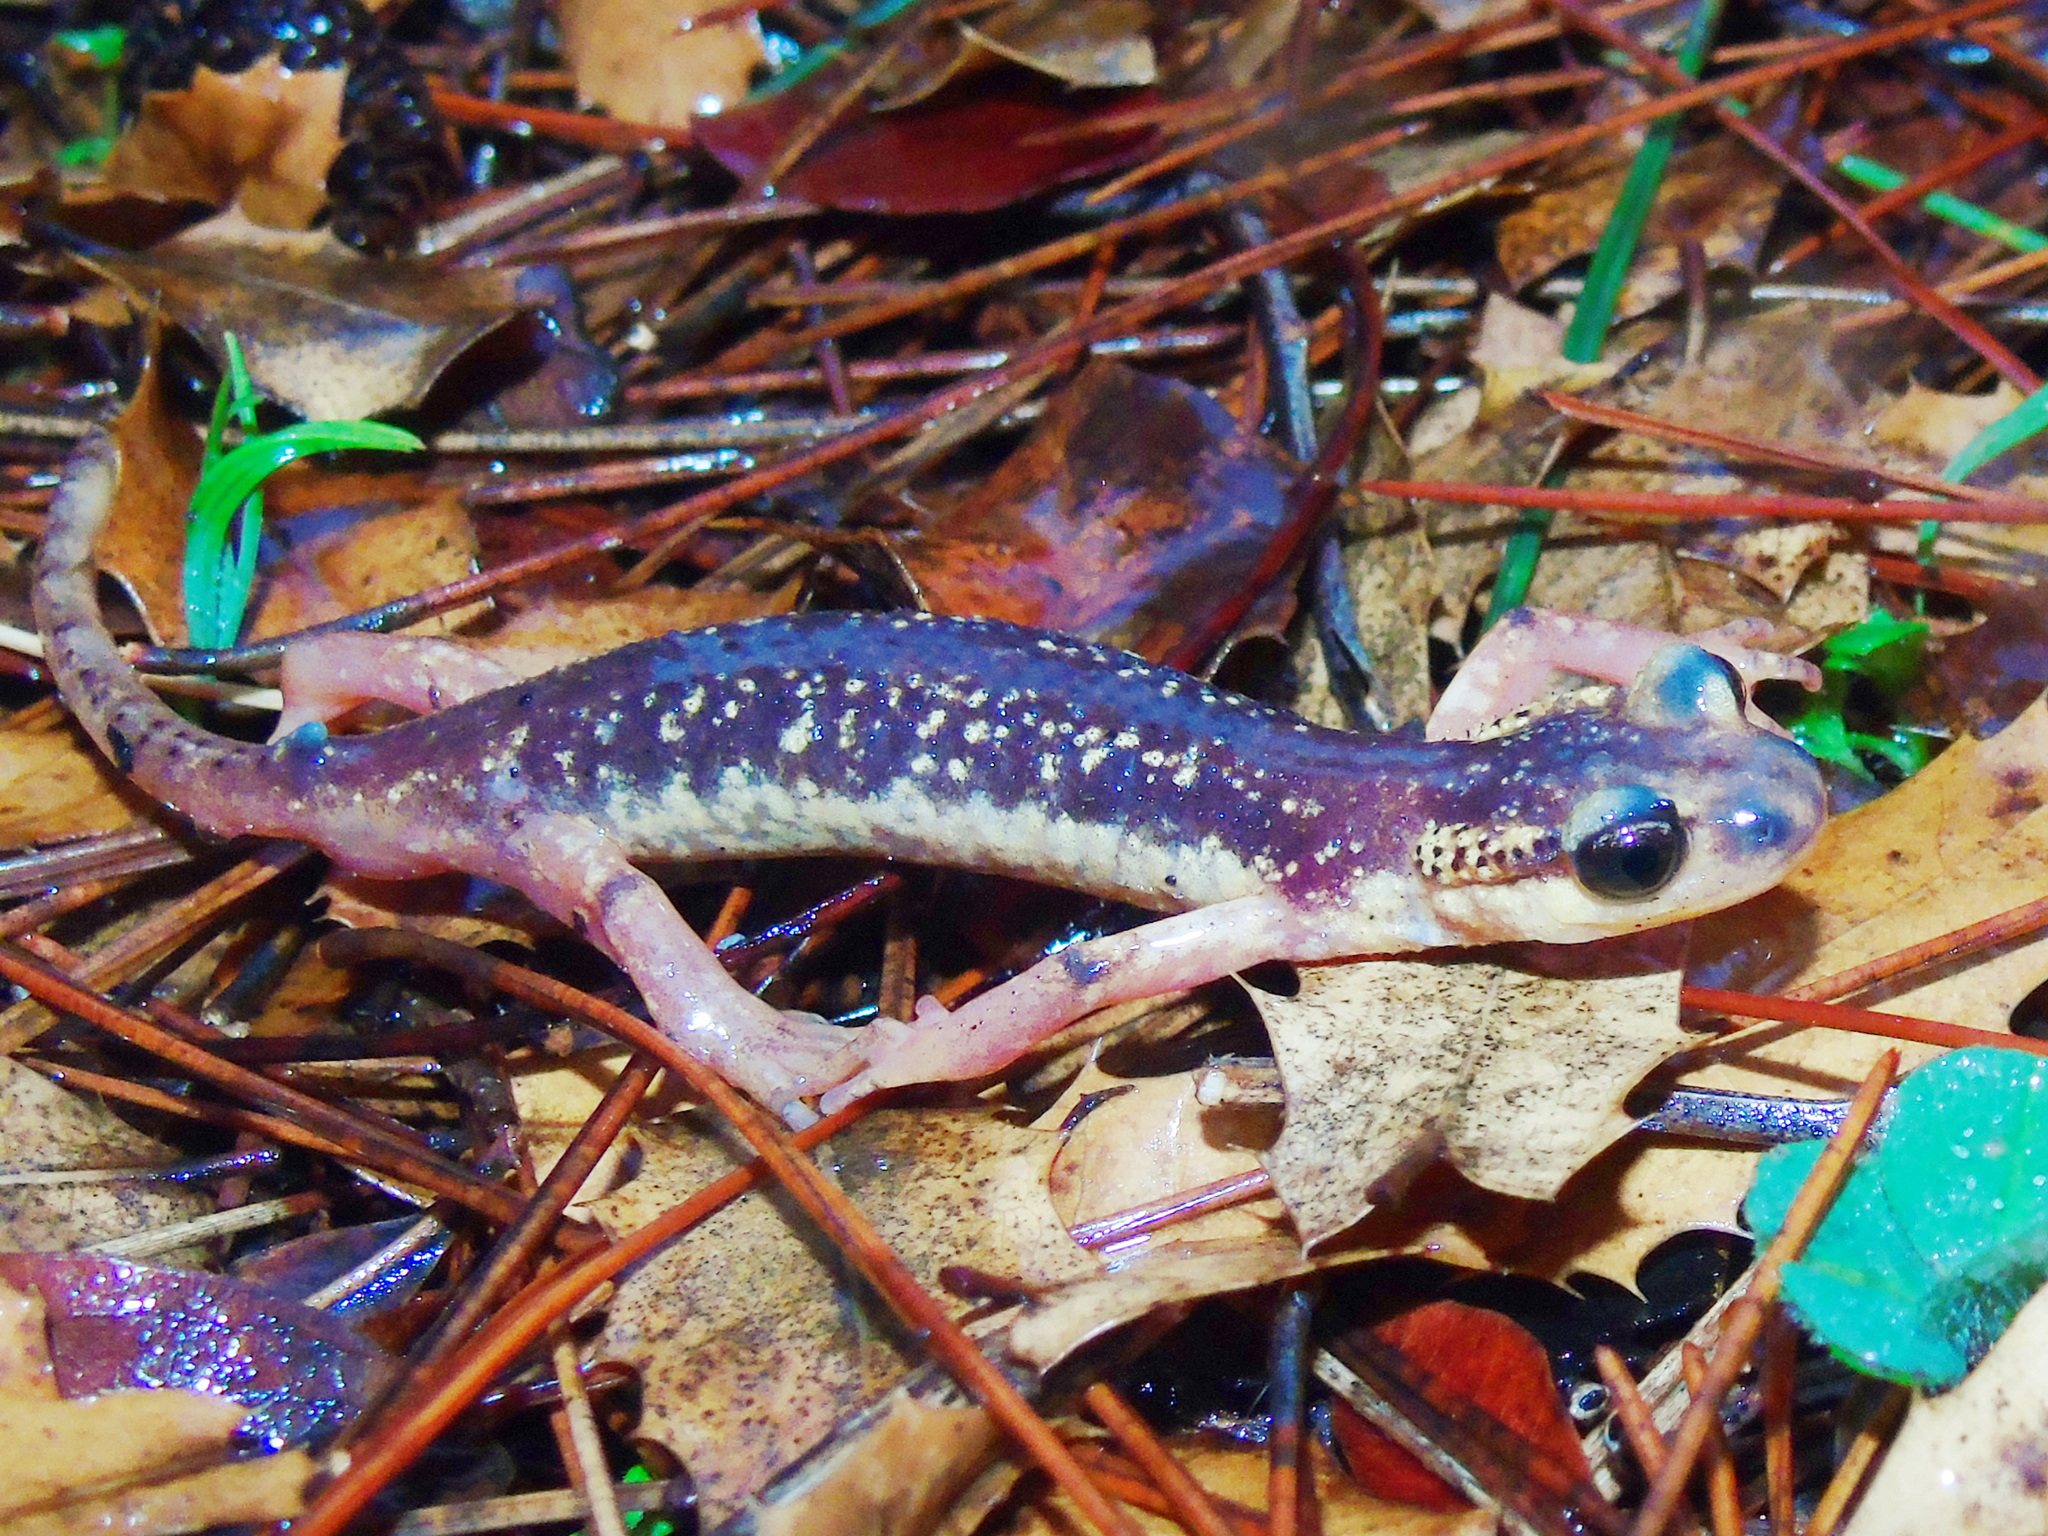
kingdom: Animalia
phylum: Chordata
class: Amphibia
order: Caudata
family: Salamandridae
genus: Lyciasalamandra
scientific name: Lyciasalamandra flavimembris
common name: Maramaris salamander
